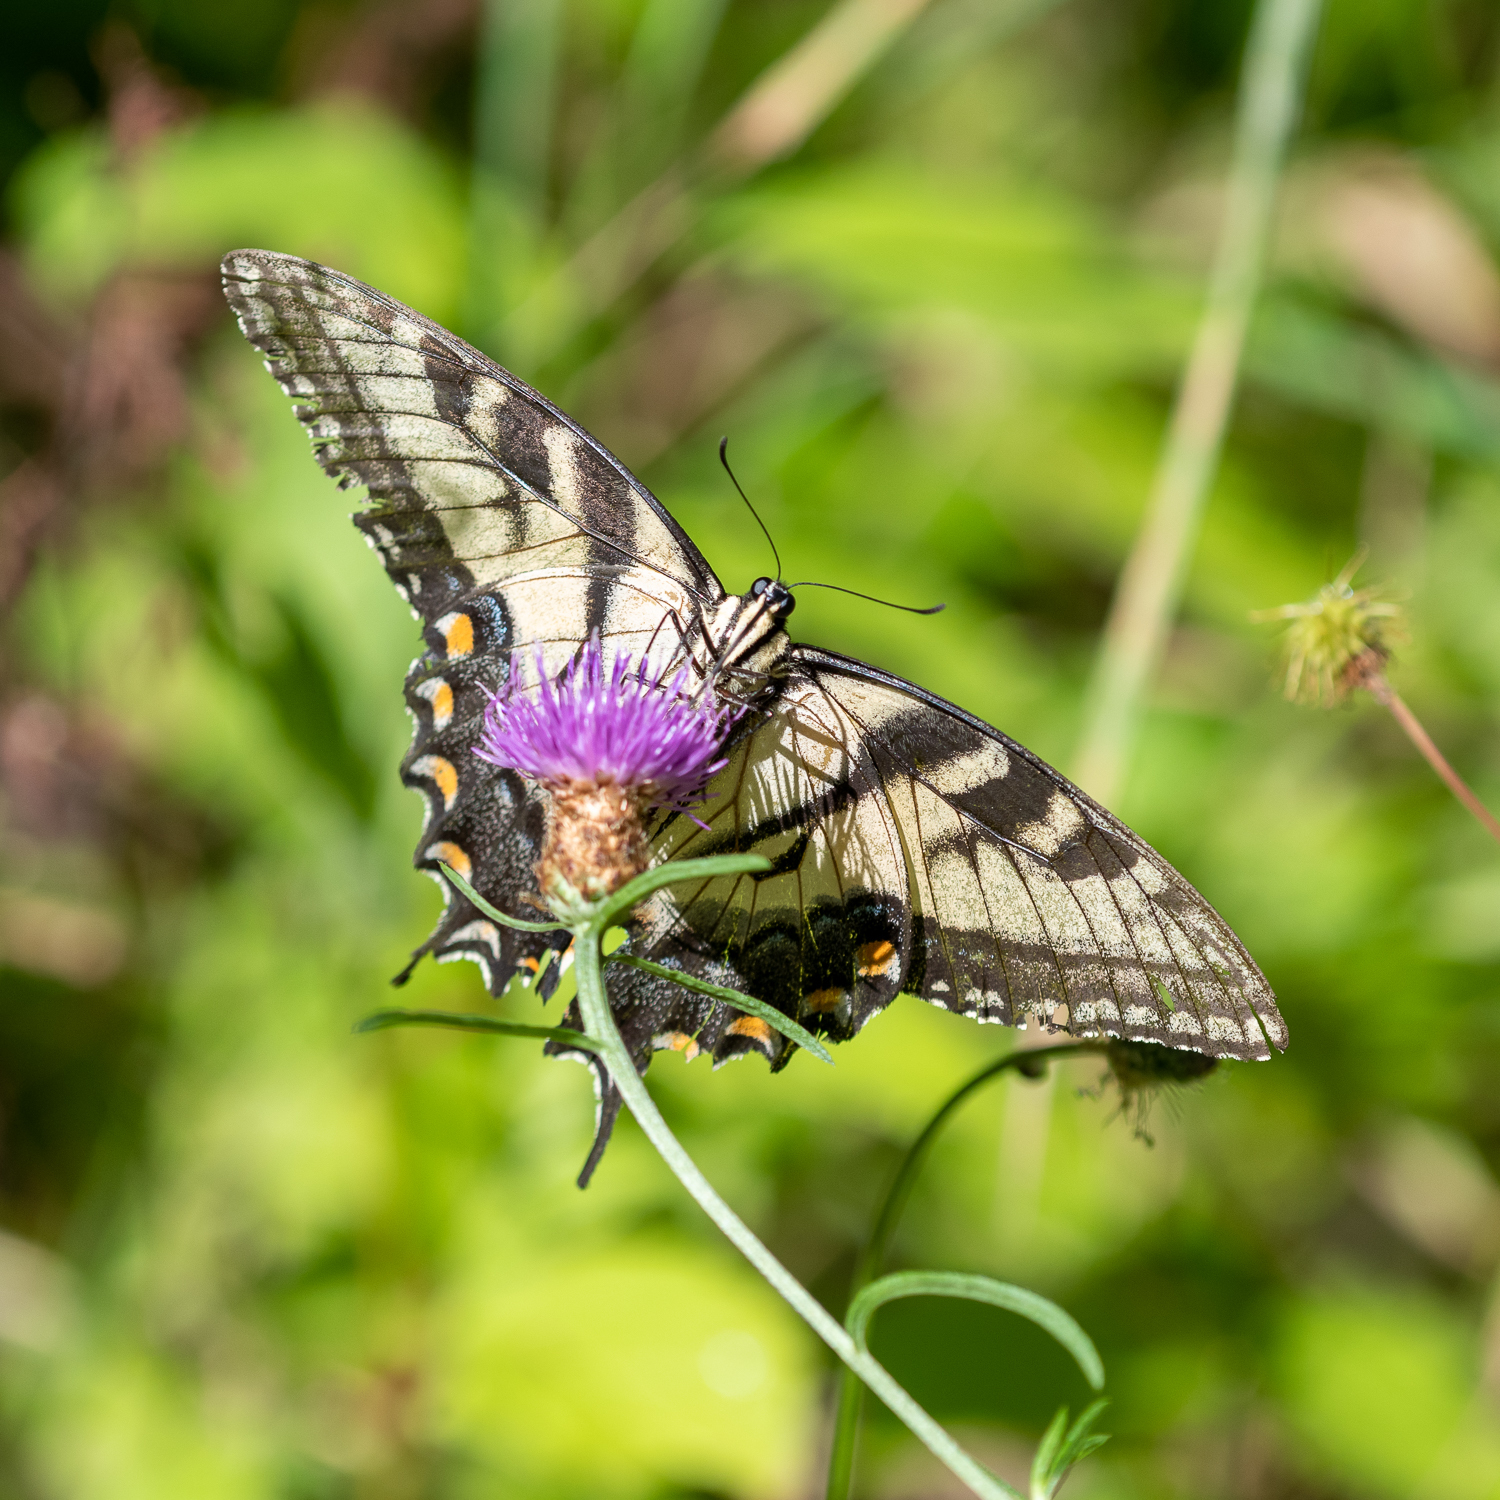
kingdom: Animalia
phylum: Arthropoda
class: Insecta
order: Lepidoptera
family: Papilionidae
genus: Papilio
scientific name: Papilio glaucus
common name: Tiger swallowtail
